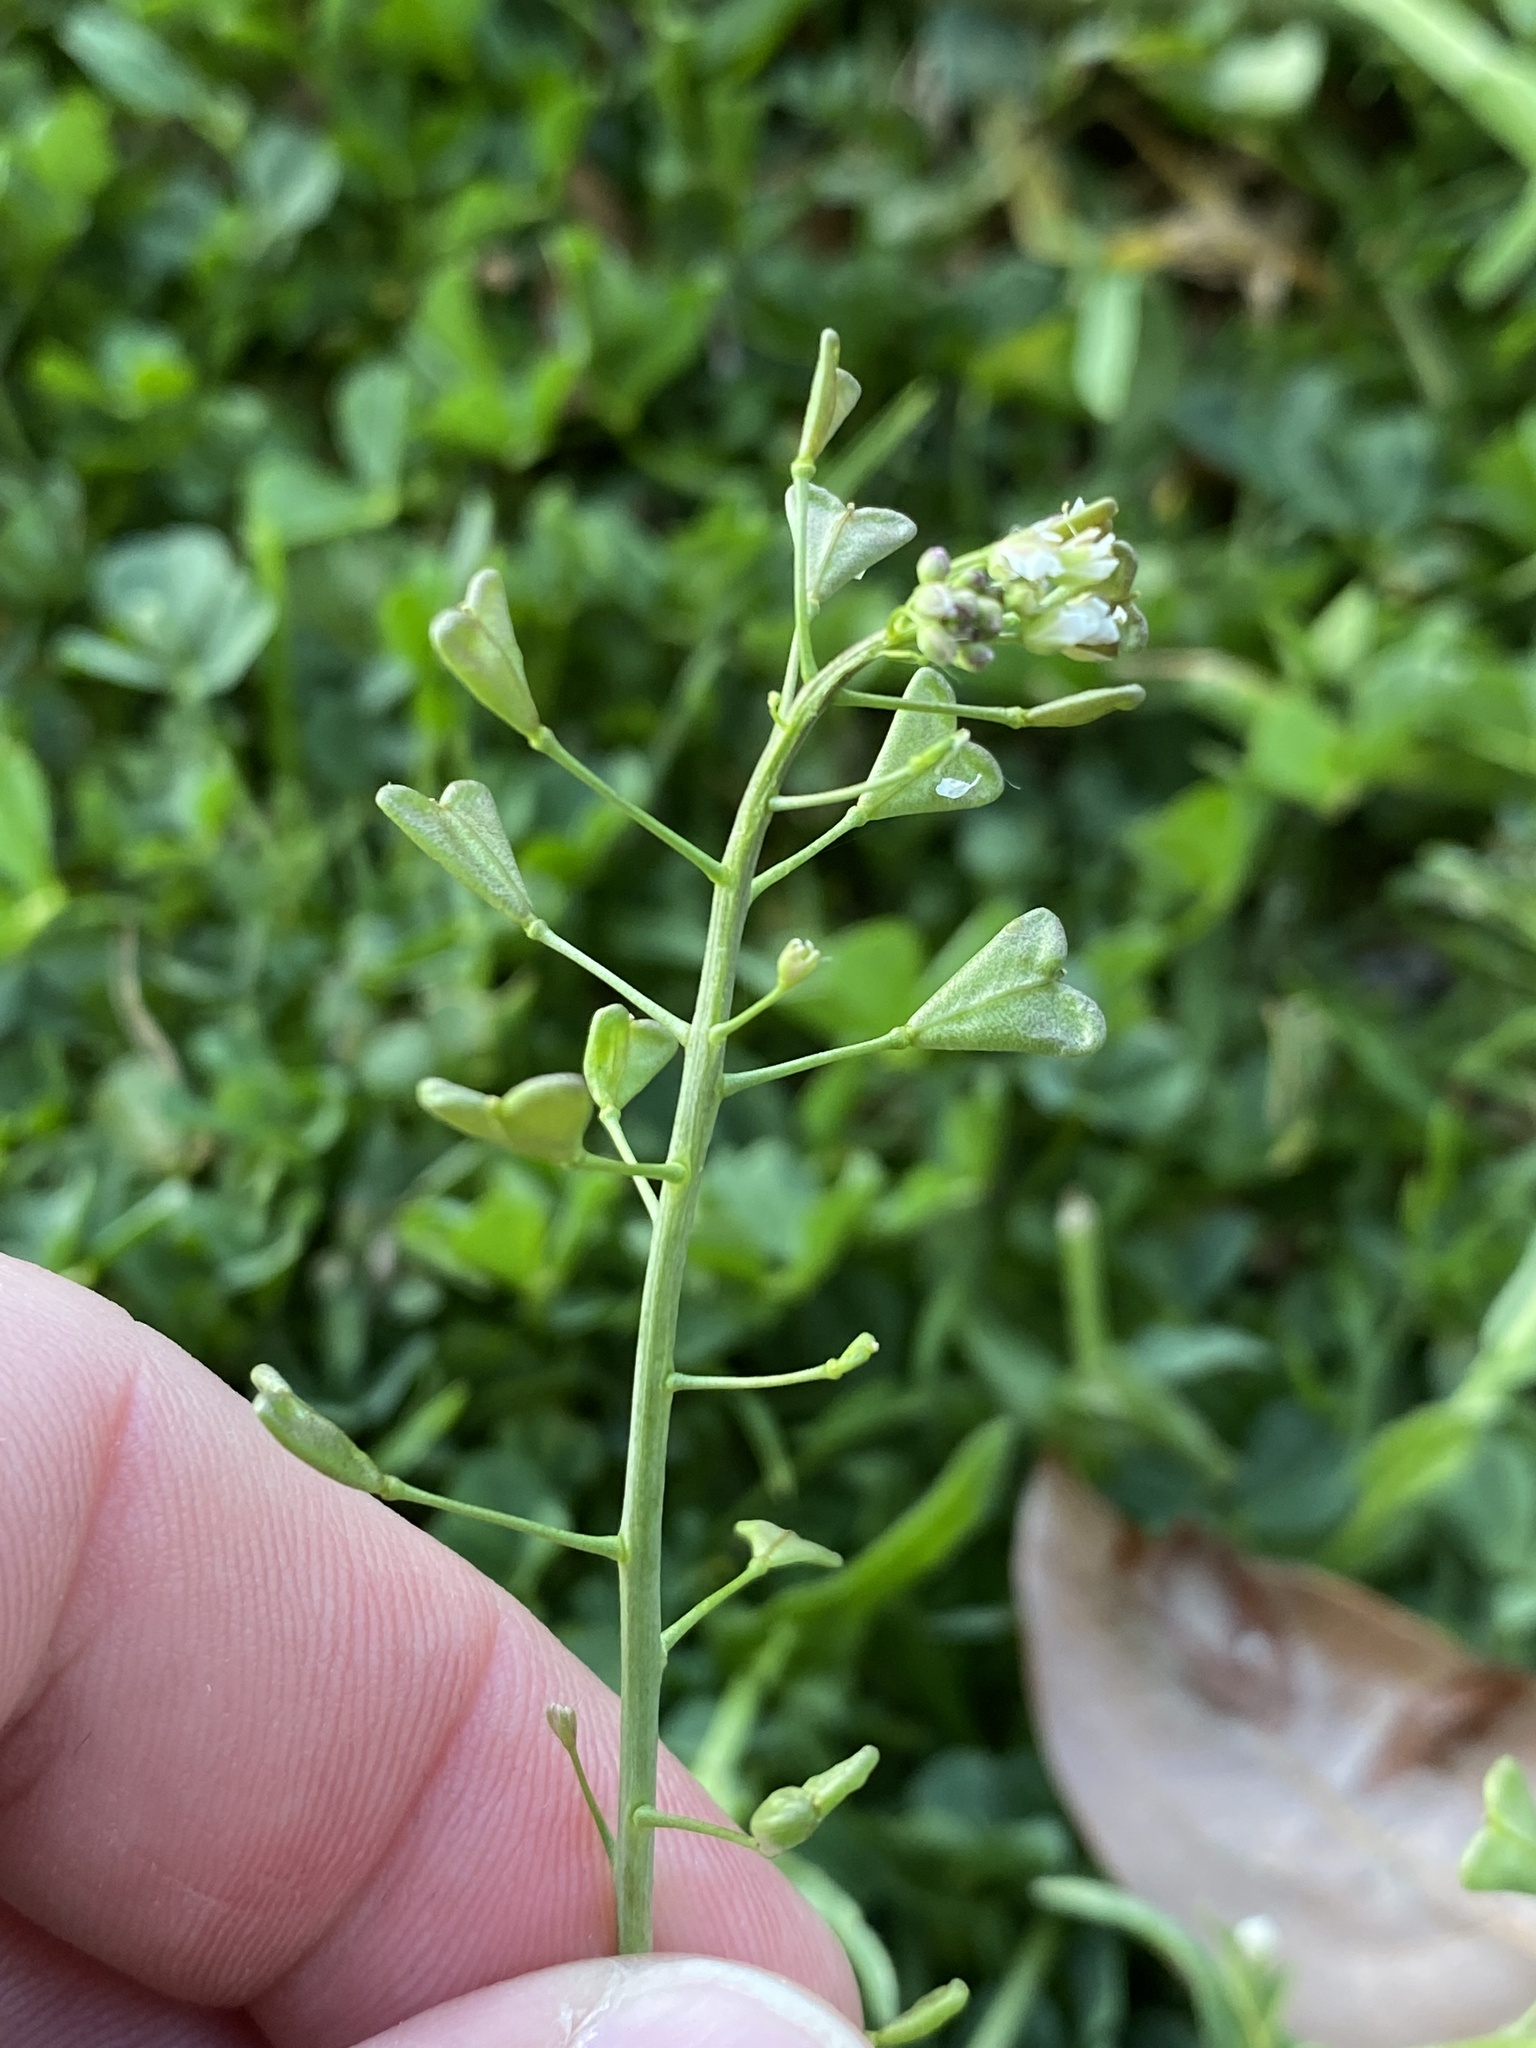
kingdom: Plantae
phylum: Tracheophyta
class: Magnoliopsida
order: Brassicales
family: Brassicaceae
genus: Capsella
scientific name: Capsella bursa-pastoris
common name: Shepherd's purse
